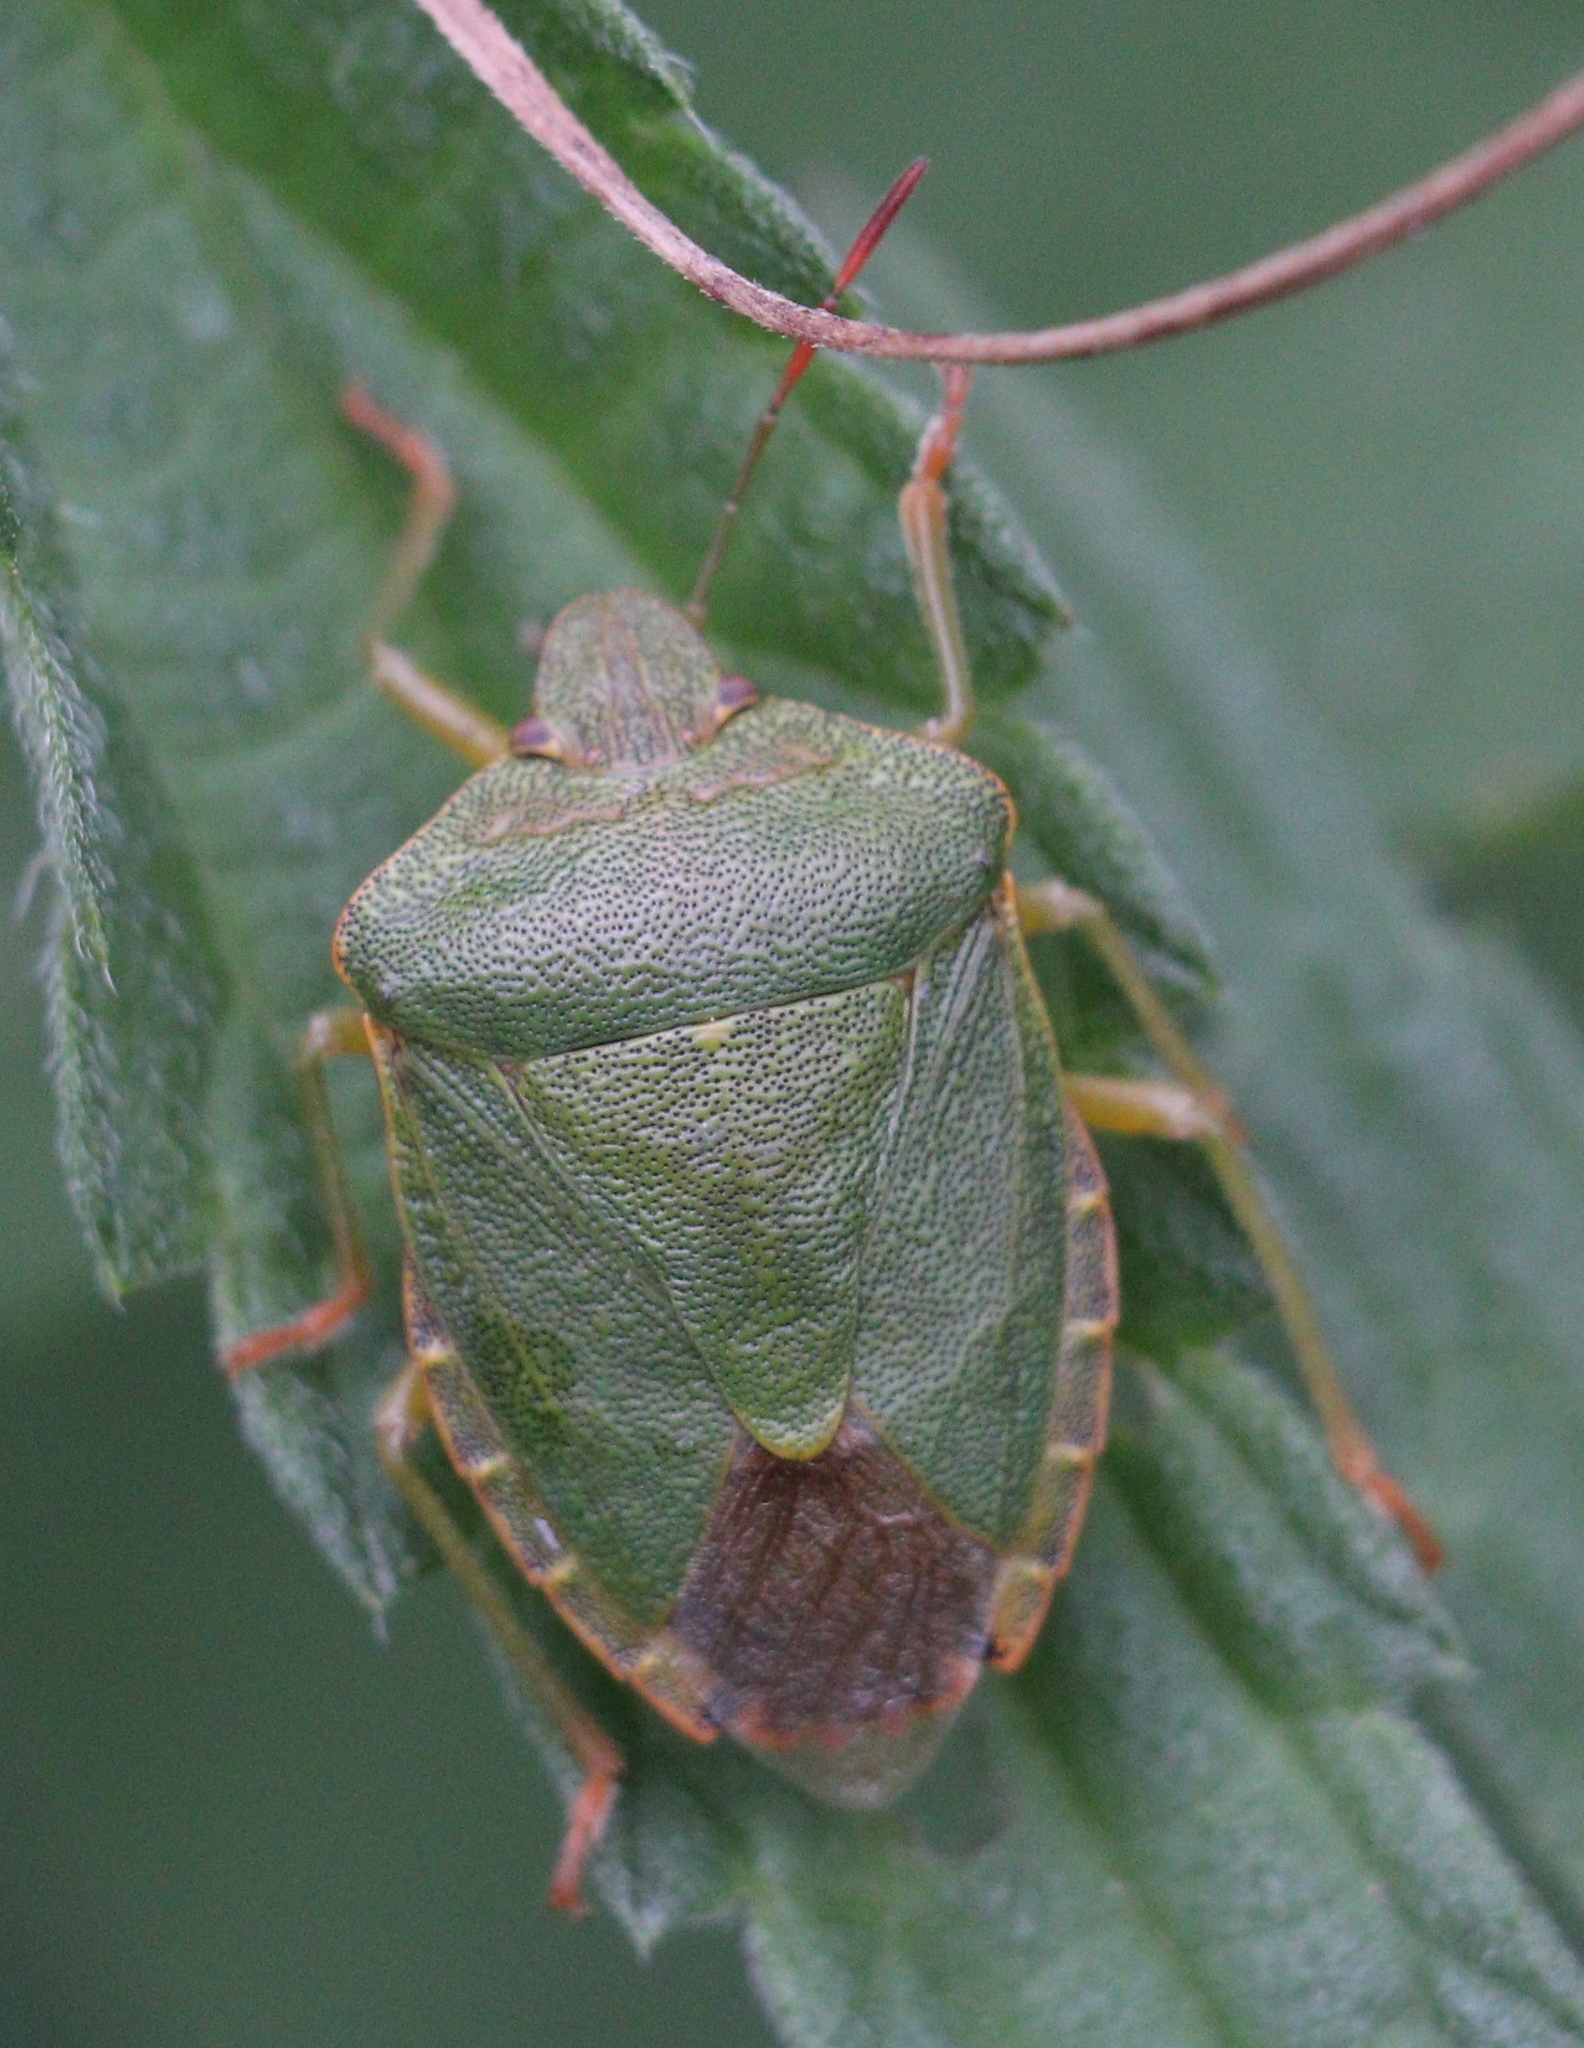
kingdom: Animalia
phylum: Arthropoda
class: Insecta
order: Hemiptera
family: Pentatomidae
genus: Palomena
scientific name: Palomena prasina
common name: Green shieldbug
